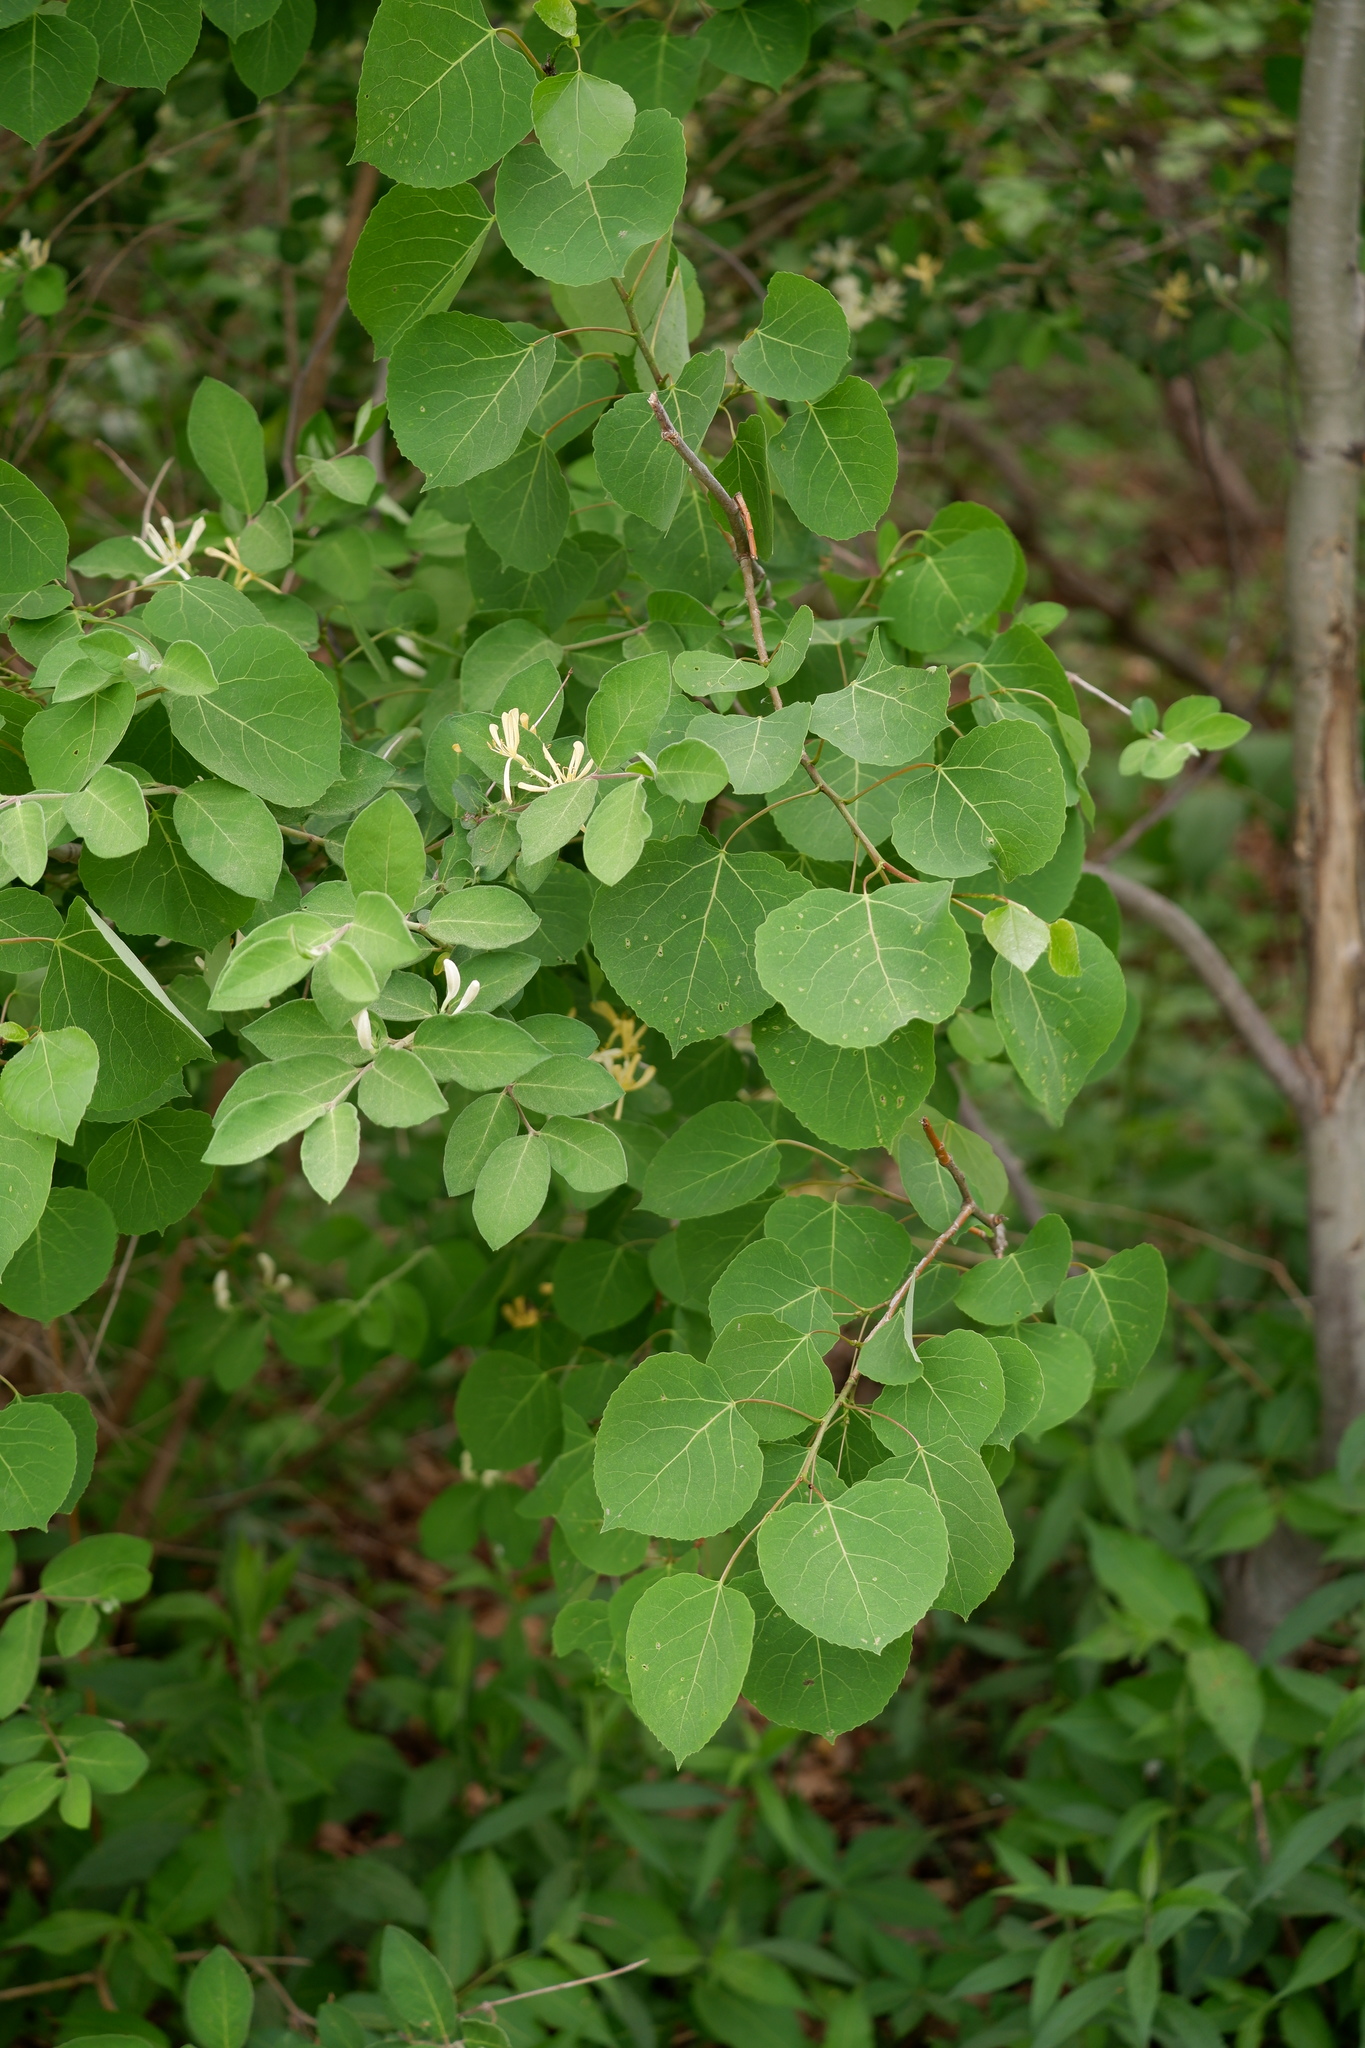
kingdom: Plantae
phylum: Tracheophyta
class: Magnoliopsida
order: Malpighiales
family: Salicaceae
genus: Populus
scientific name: Populus tremuloides
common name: Quaking aspen
